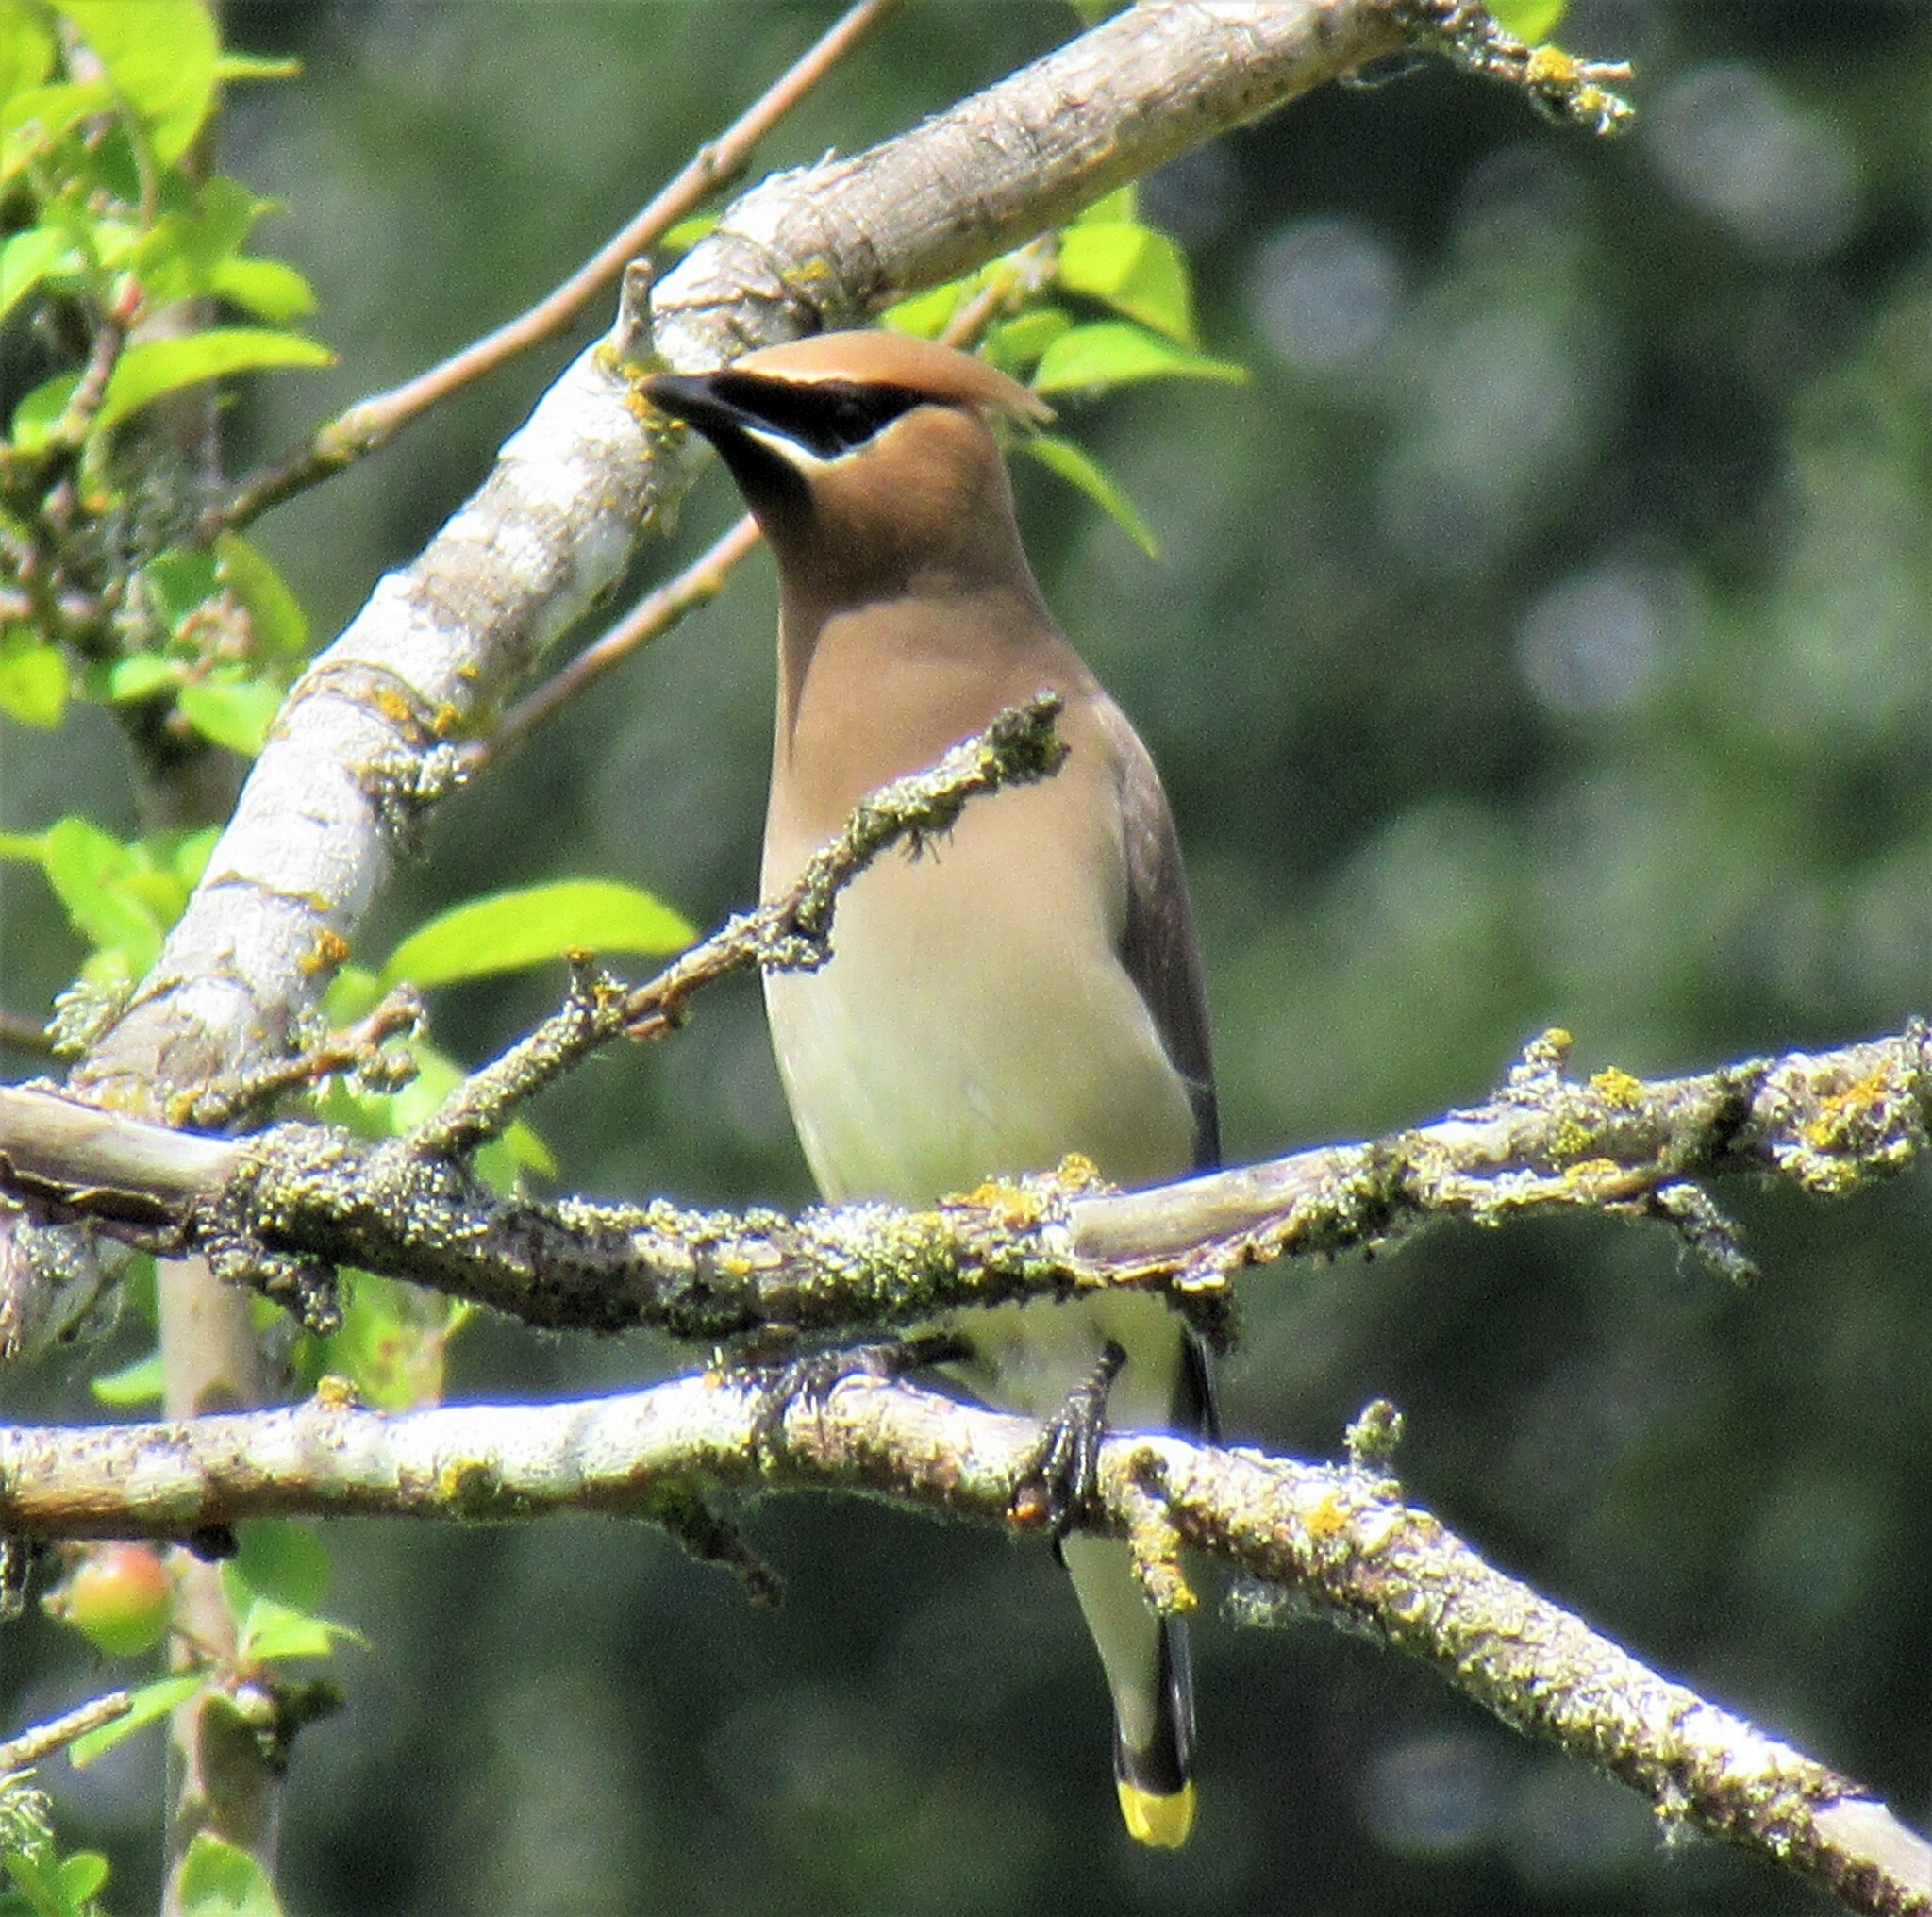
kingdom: Animalia
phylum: Chordata
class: Aves
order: Passeriformes
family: Bombycillidae
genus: Bombycilla
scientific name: Bombycilla cedrorum
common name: Cedar waxwing
